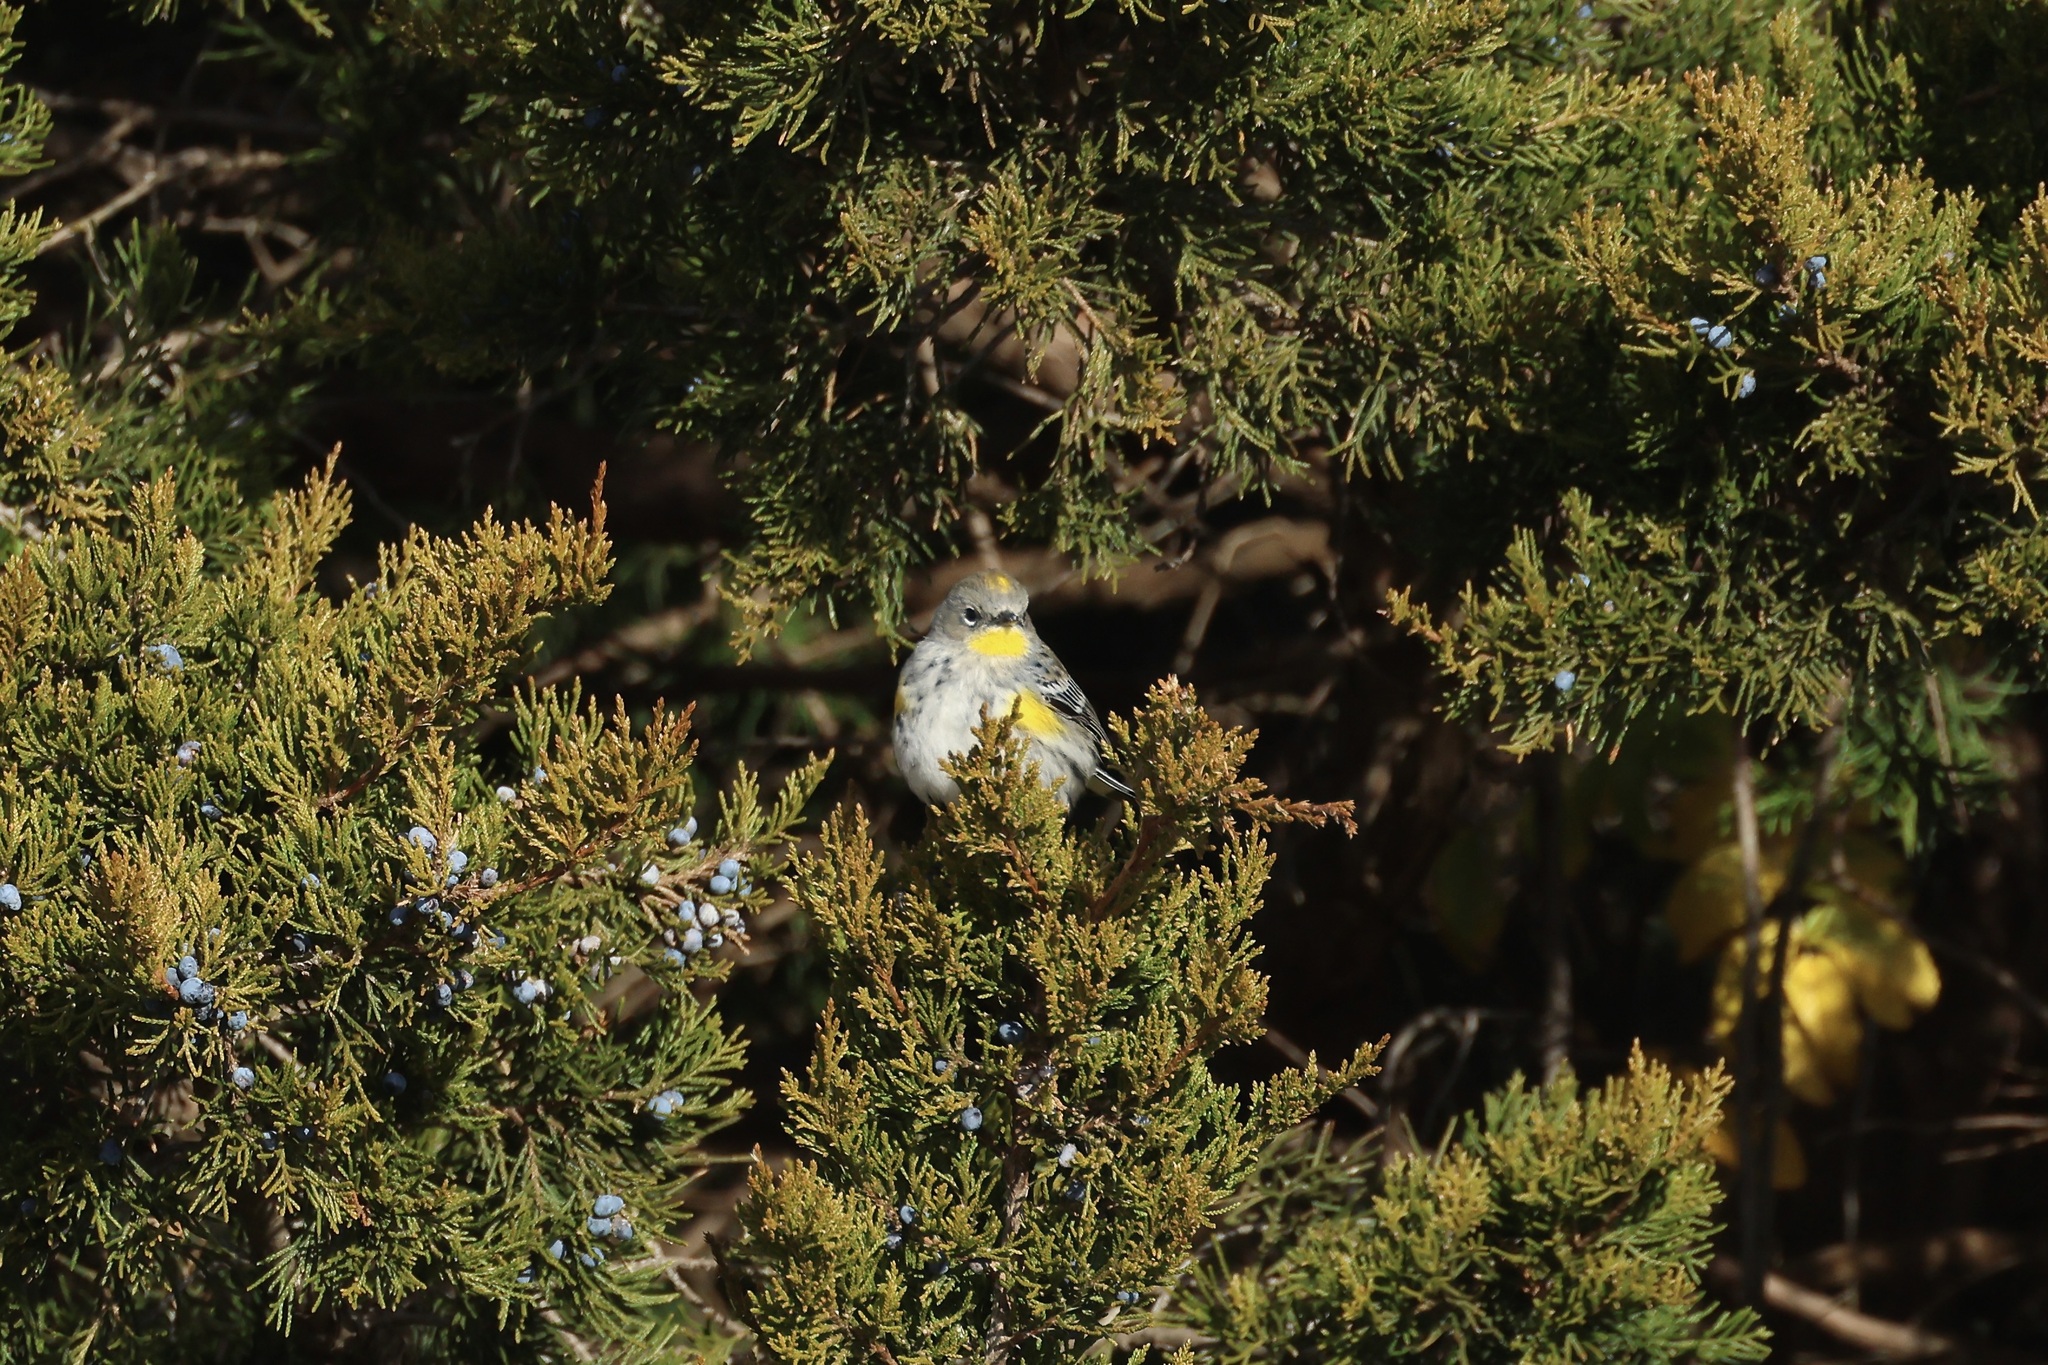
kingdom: Animalia
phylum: Chordata
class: Aves
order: Passeriformes
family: Parulidae
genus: Setophaga
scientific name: Setophaga auduboni
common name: Audubon's warbler
